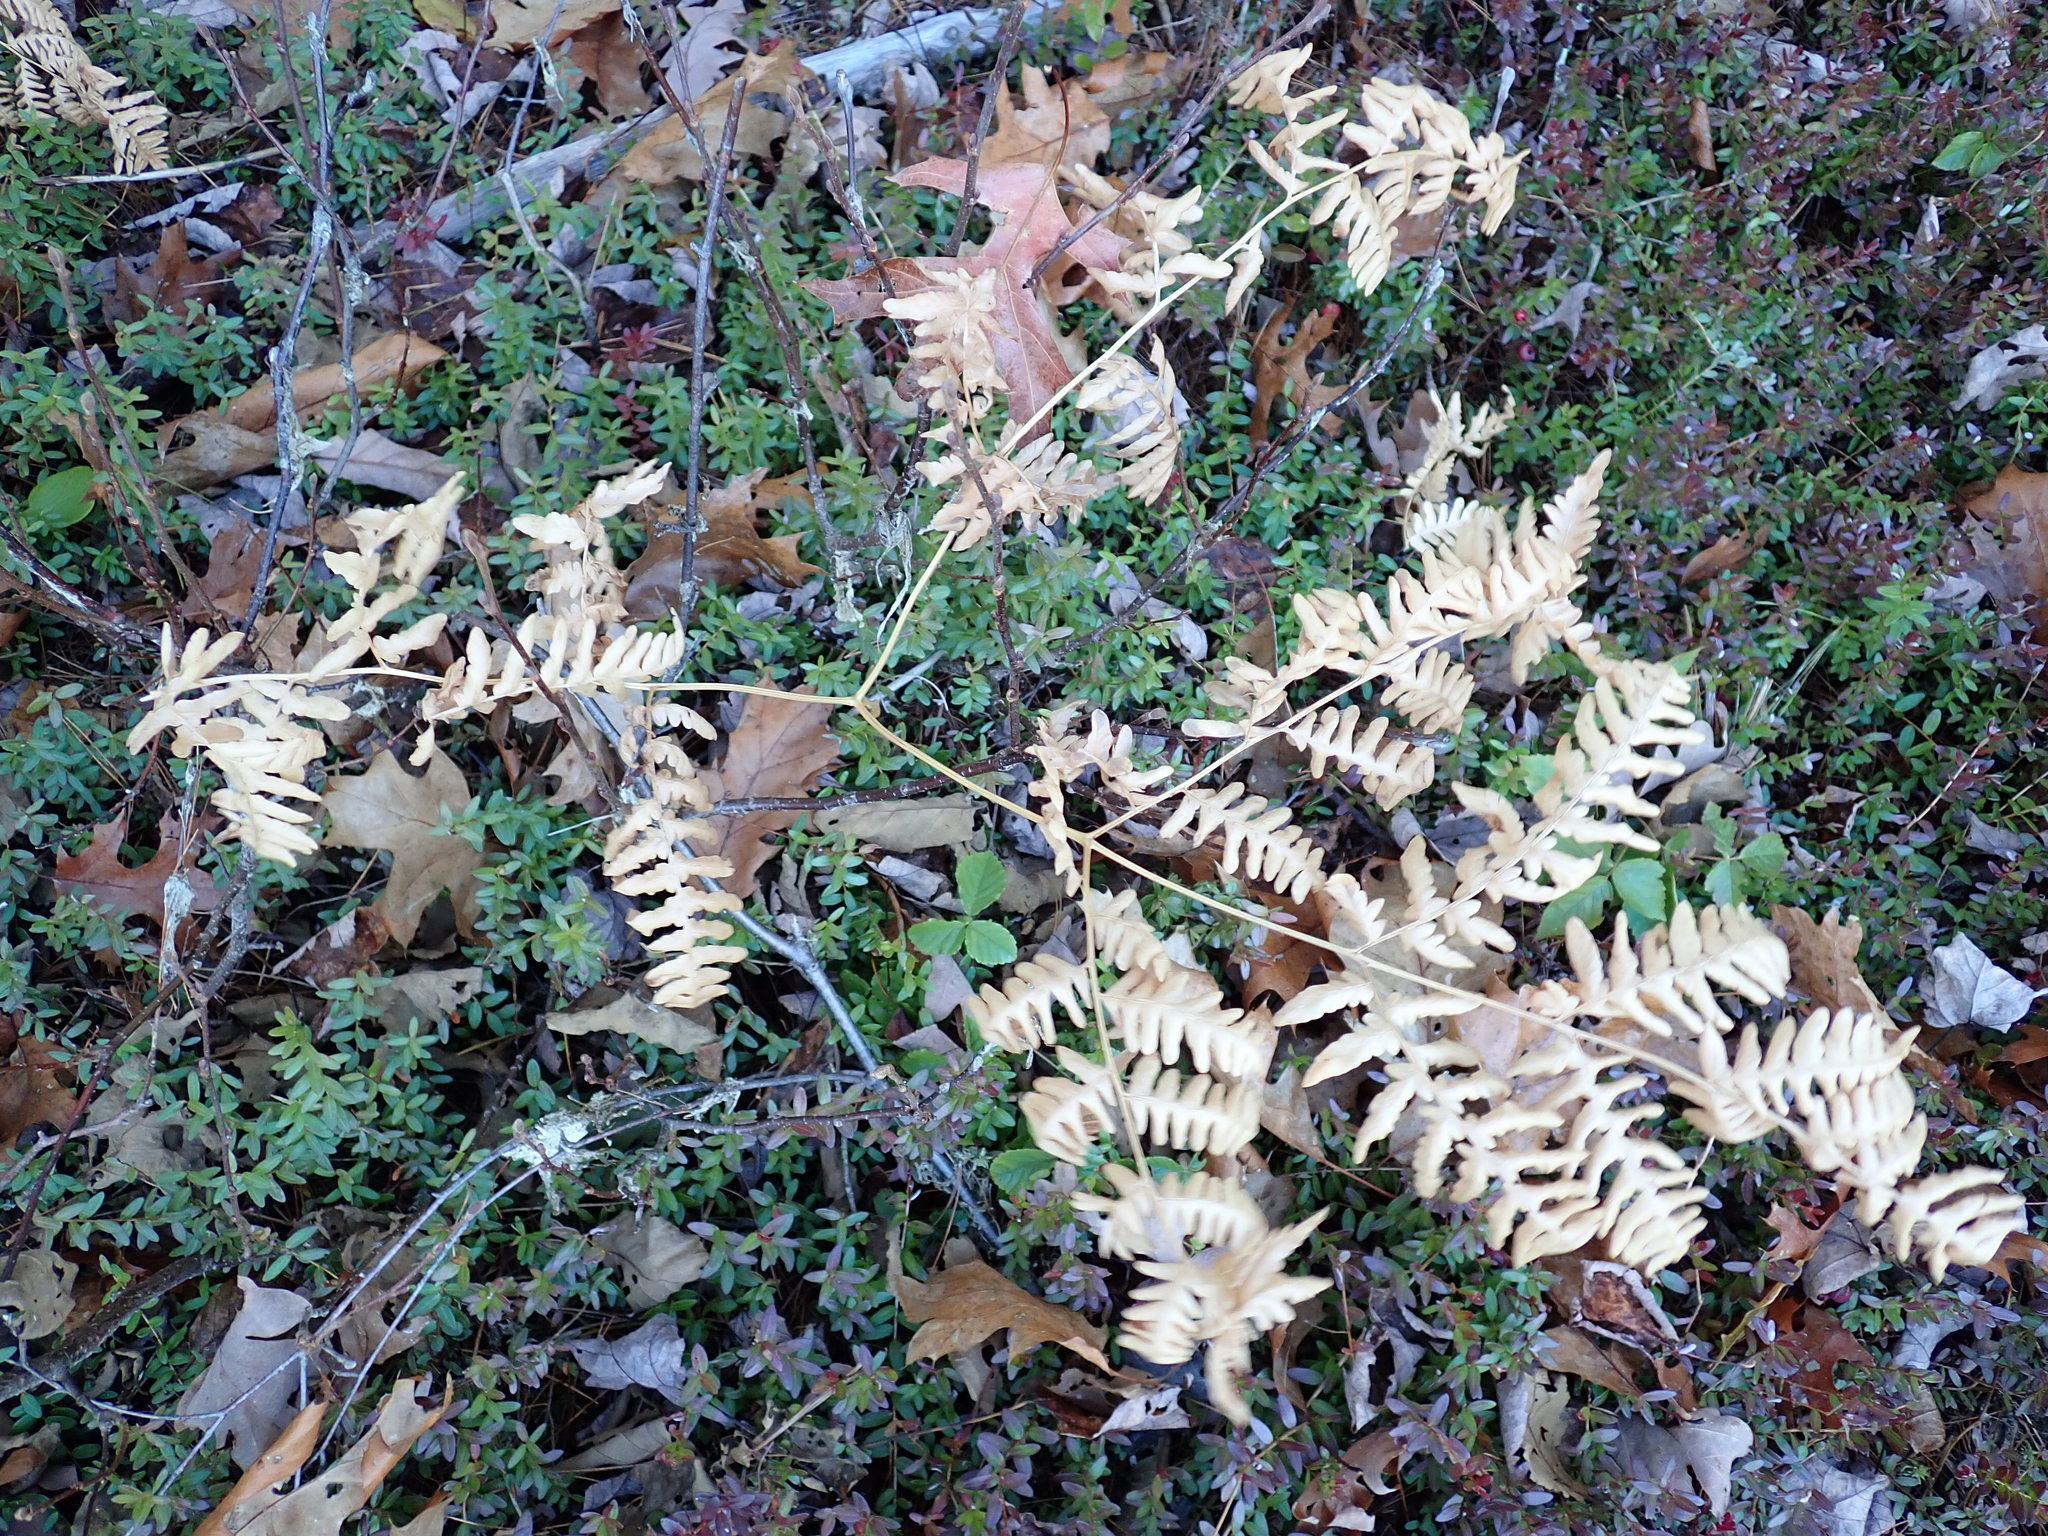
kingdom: Plantae
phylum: Tracheophyta
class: Polypodiopsida
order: Polypodiales
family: Dennstaedtiaceae
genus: Pteridium
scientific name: Pteridium aquilinum
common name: Bracken
